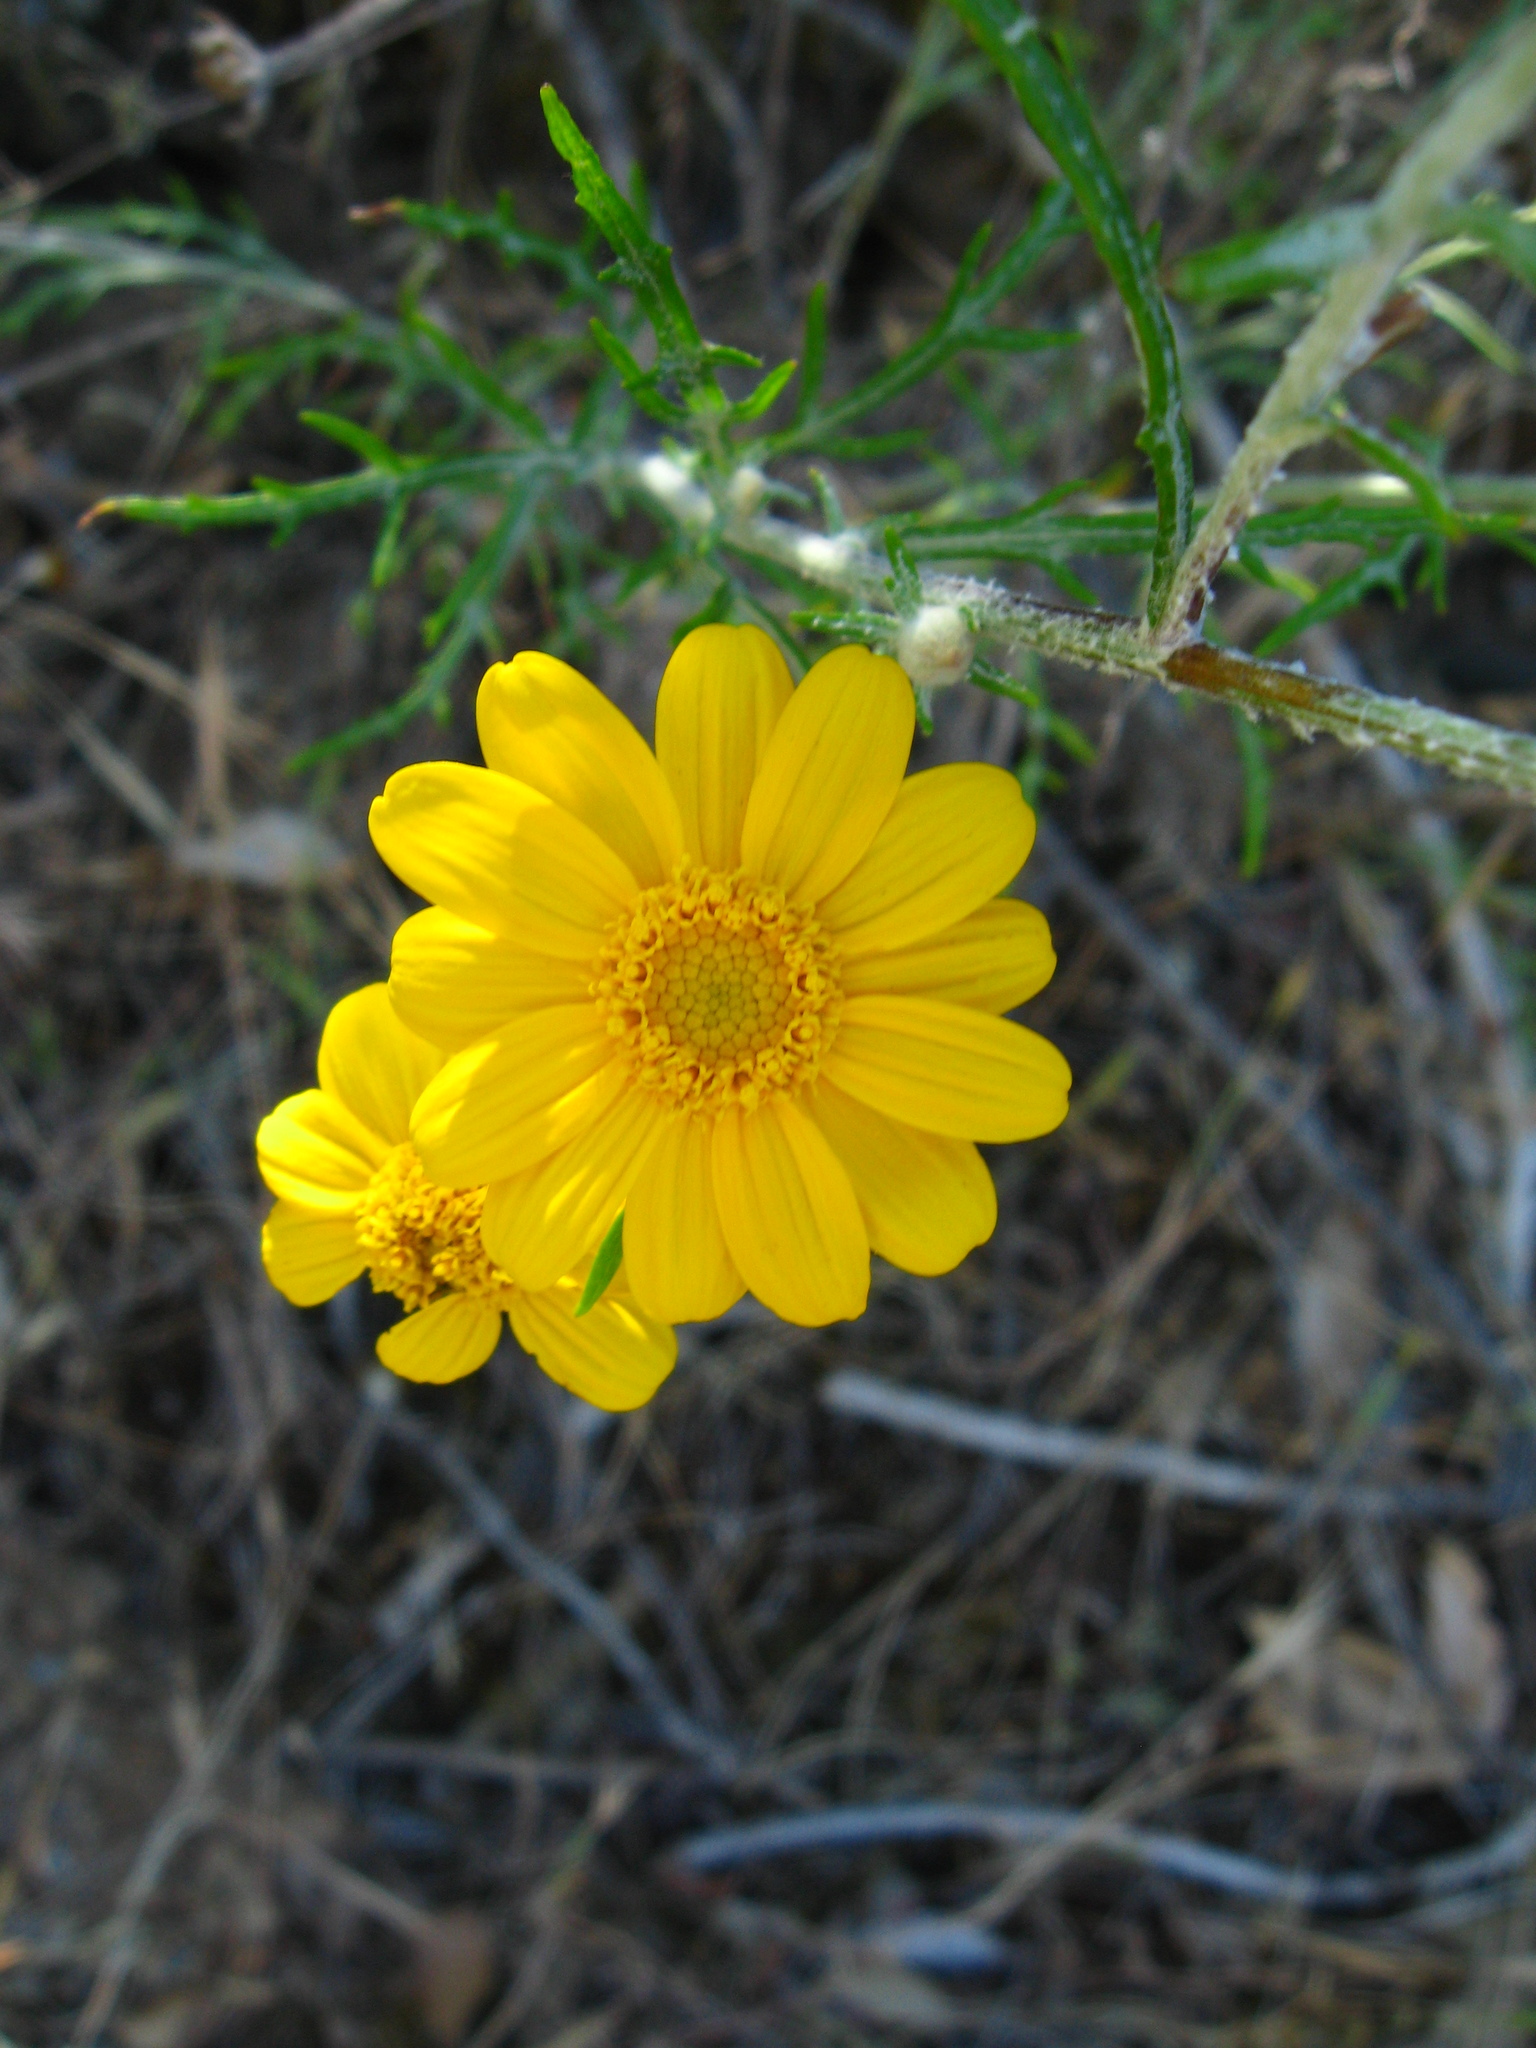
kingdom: Plantae
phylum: Tracheophyta
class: Magnoliopsida
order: Asterales
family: Asteraceae
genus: Eriophyllum
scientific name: Eriophyllum lanatum
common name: Common woolly-sunflower
